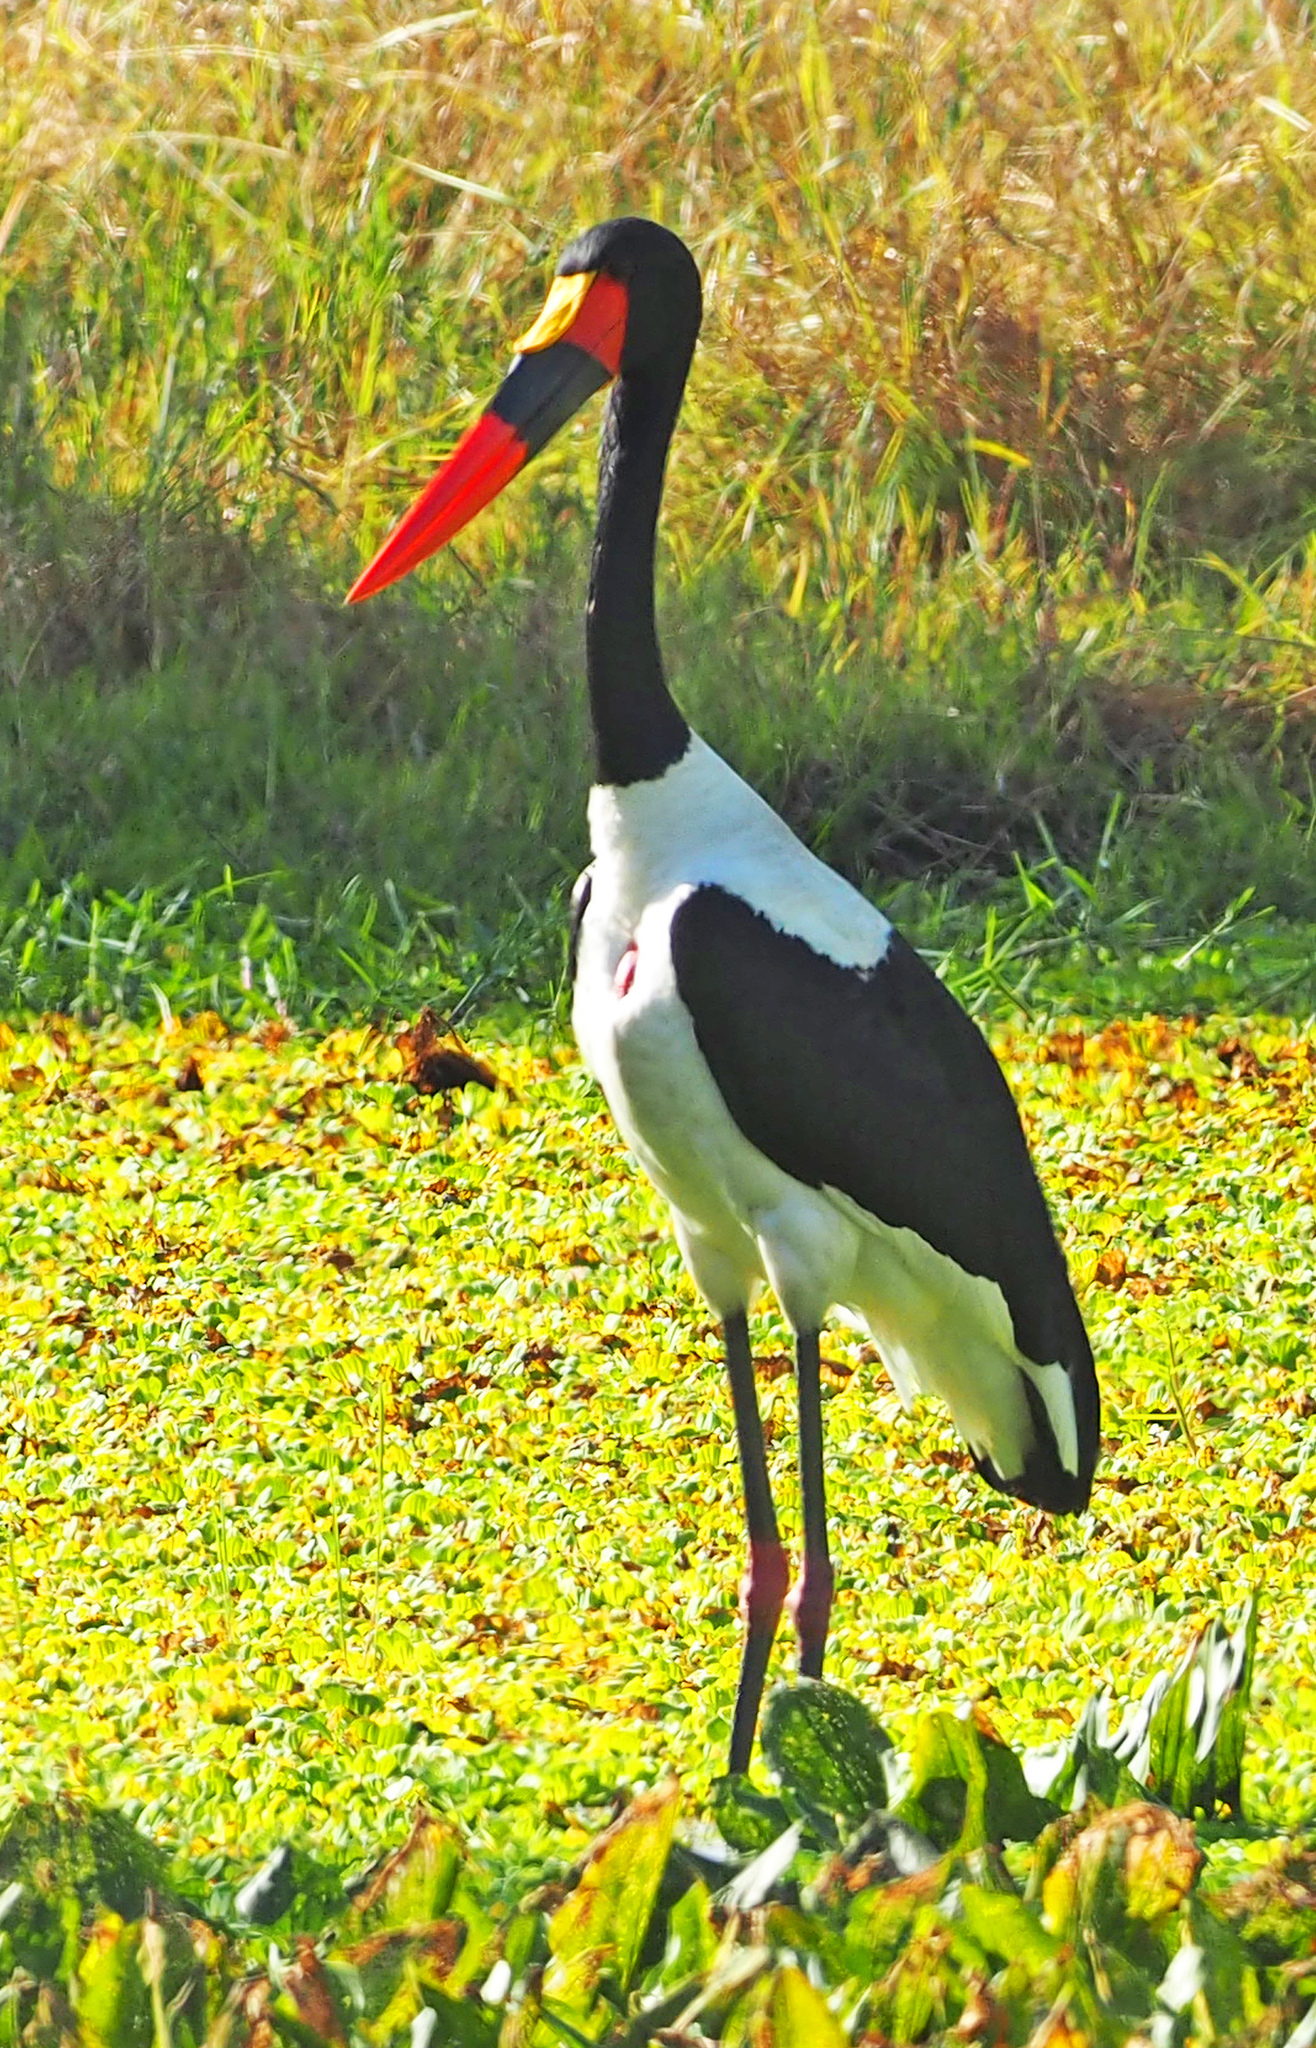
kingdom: Animalia
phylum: Chordata
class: Aves
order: Ciconiiformes
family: Ciconiidae
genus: Ephippiorhynchus
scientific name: Ephippiorhynchus senegalensis
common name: Saddle-billed stork
